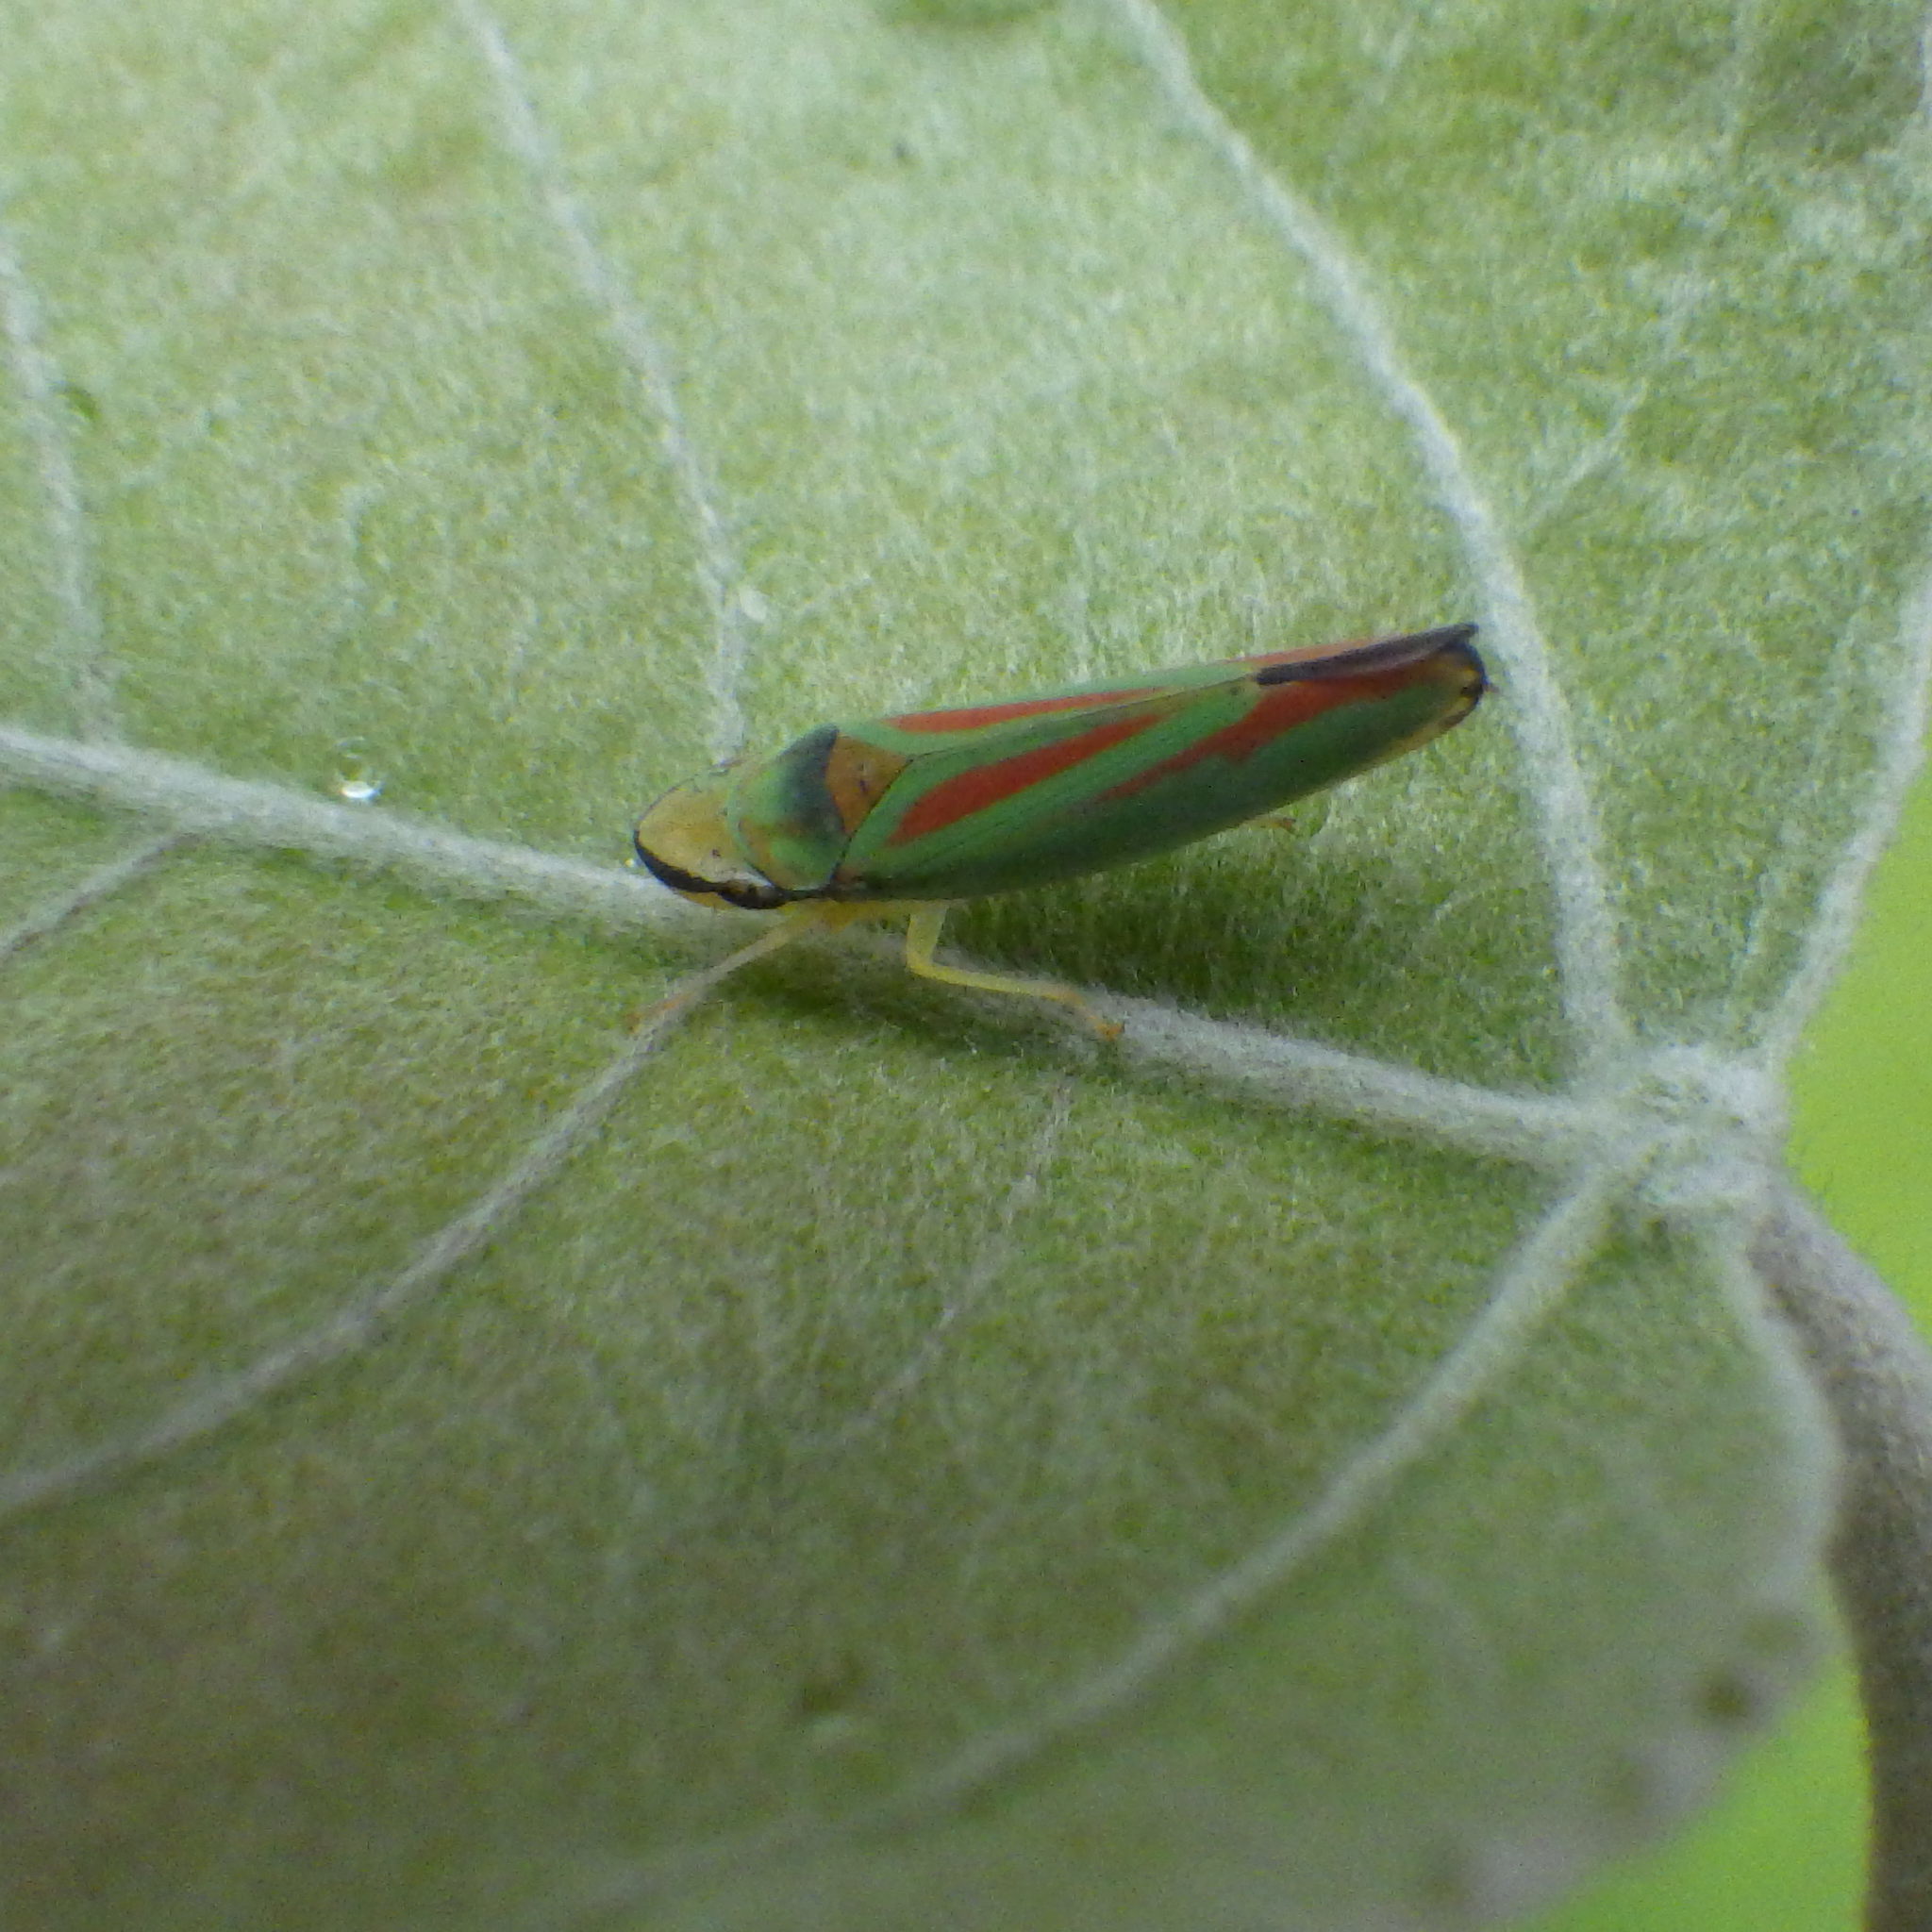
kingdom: Animalia
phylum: Arthropoda
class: Insecta
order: Hemiptera
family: Cicadellidae
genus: Graphocephala
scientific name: Graphocephala fennahi
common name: Rhododendron leafhopper
